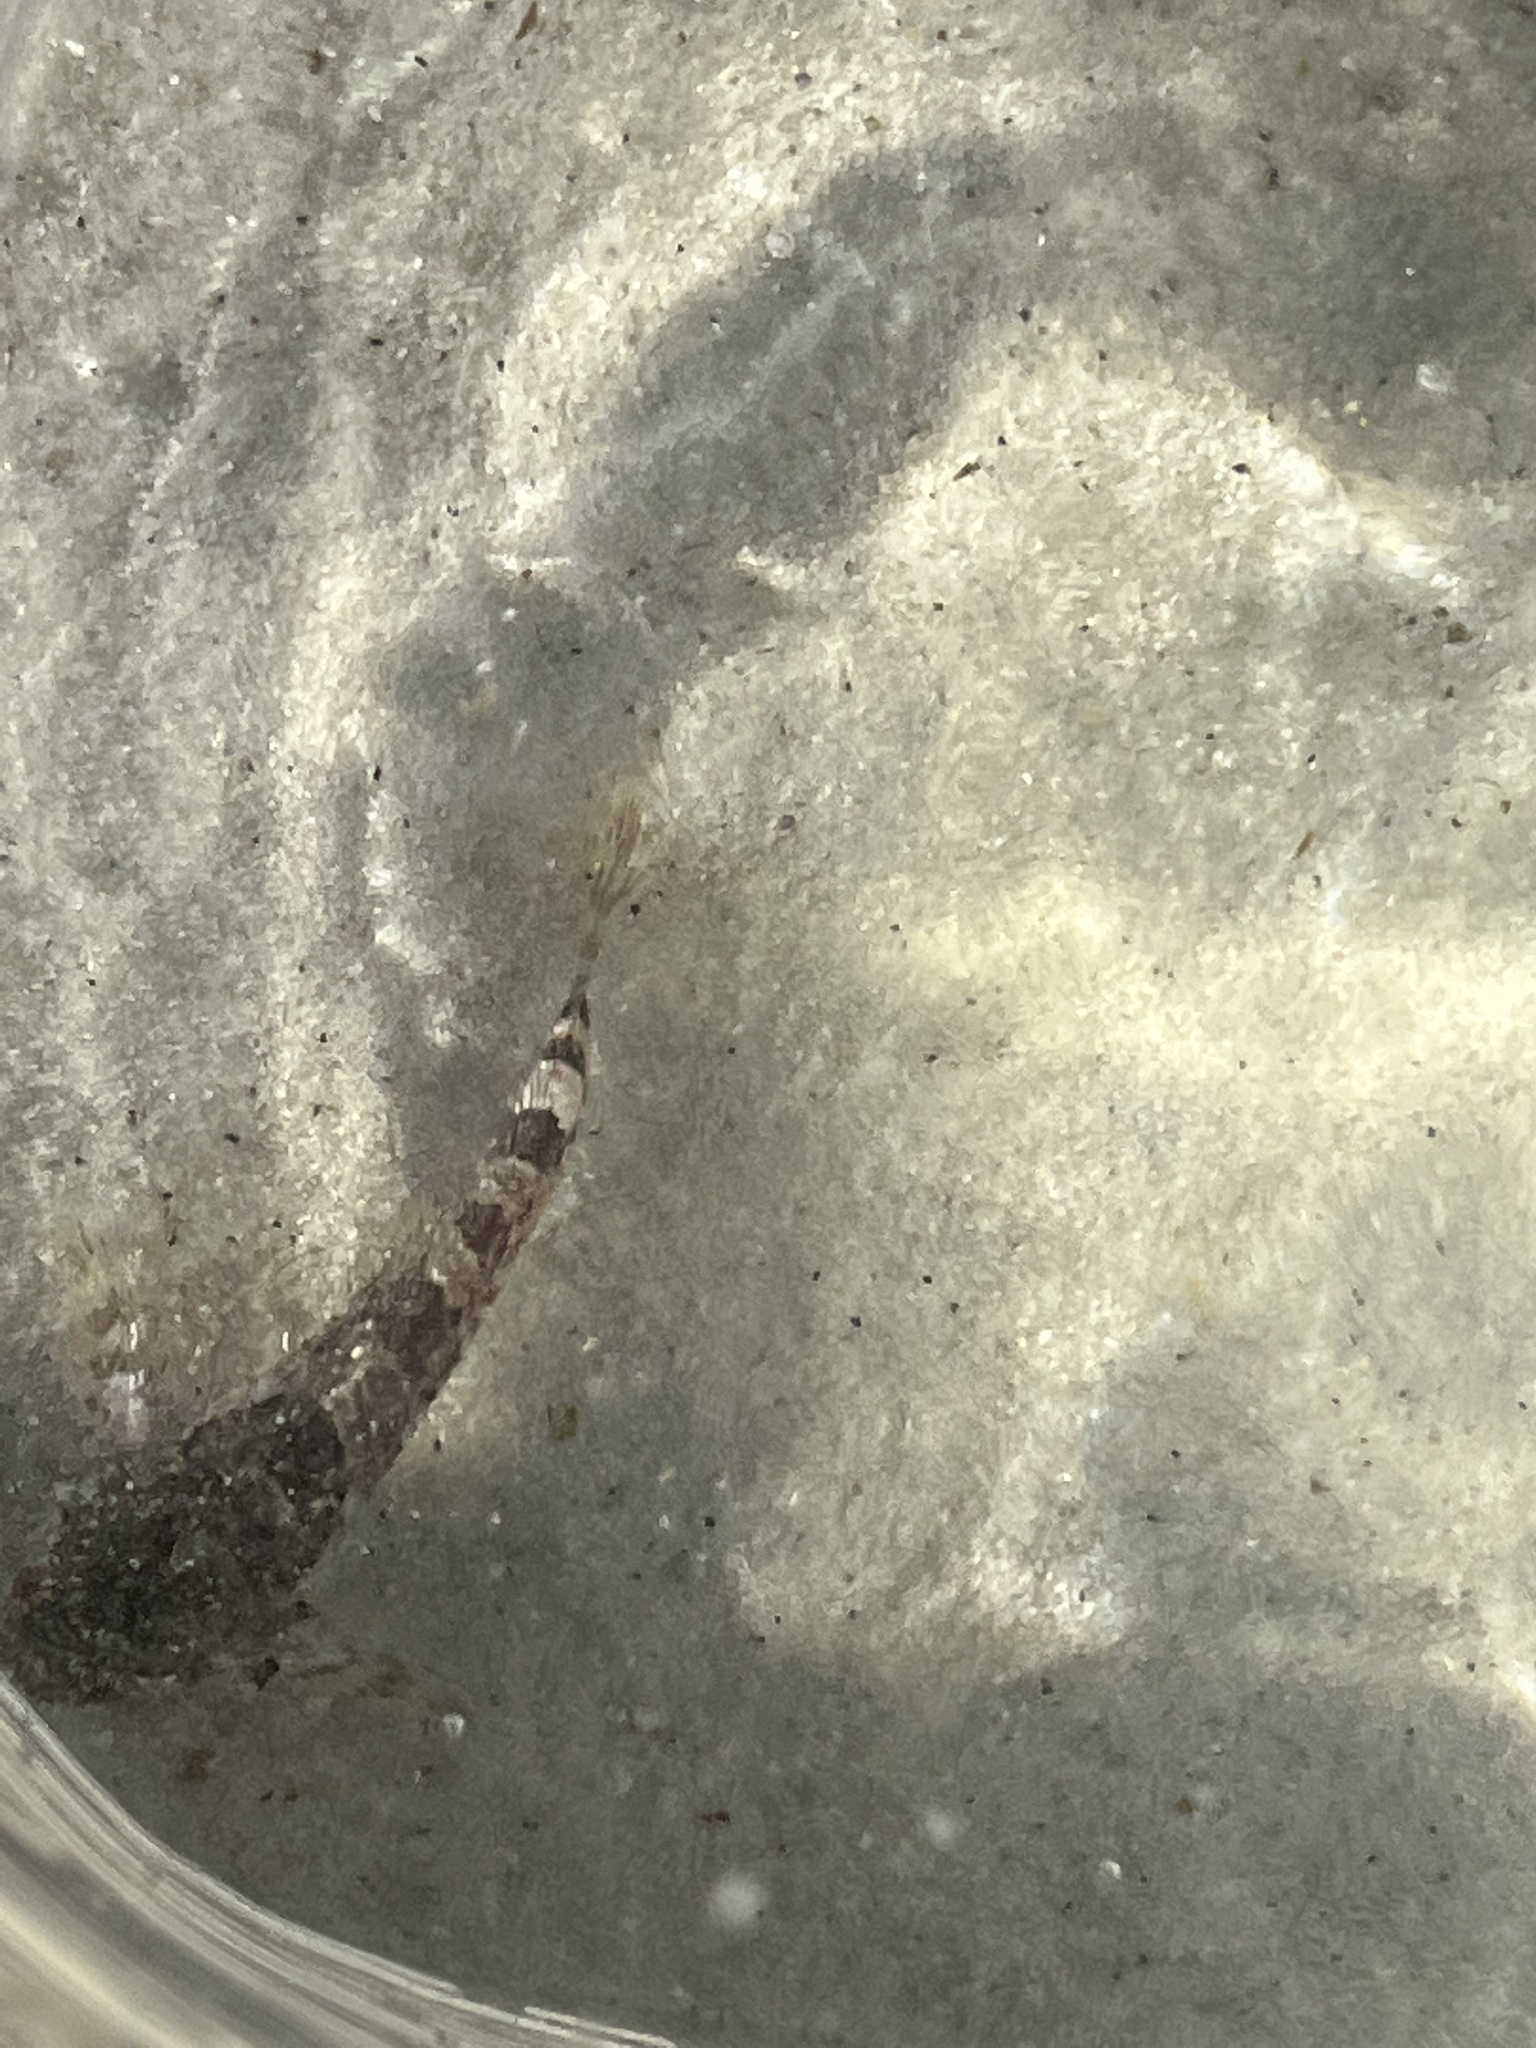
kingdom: Animalia
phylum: Chordata
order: Scorpaeniformes
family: Cottidae
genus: Clinocottus
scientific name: Clinocottus analis
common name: Woolly sculpin
